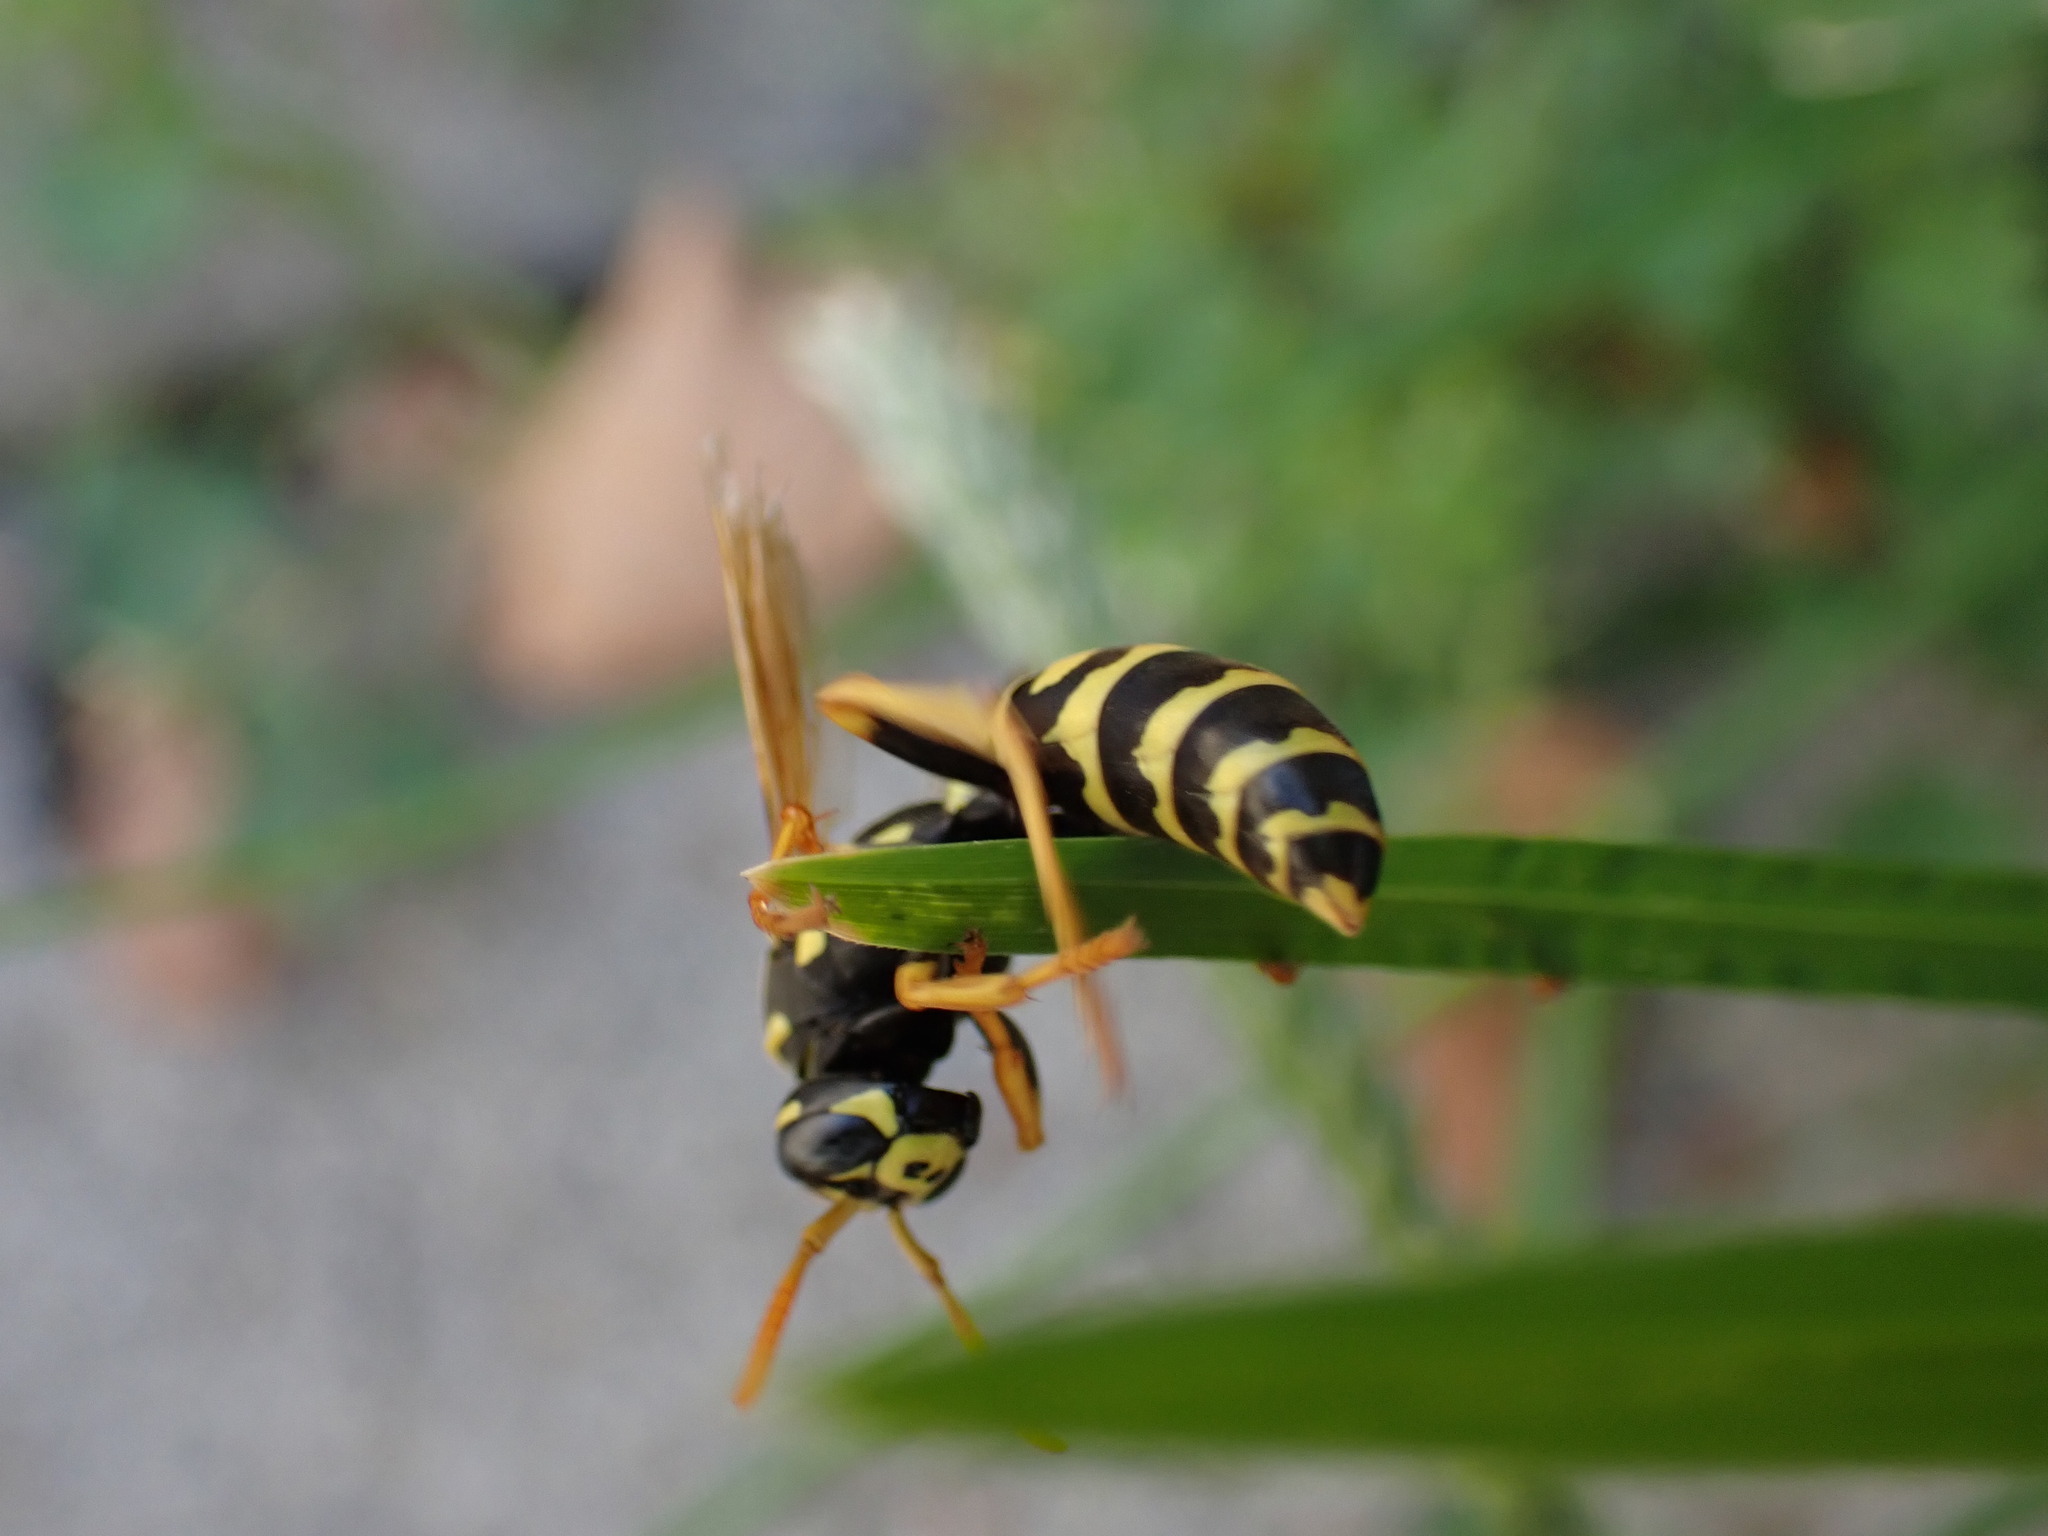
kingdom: Animalia
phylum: Arthropoda
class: Insecta
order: Hymenoptera
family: Eumenidae
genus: Polistes
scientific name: Polistes dominula
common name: Paper wasp
